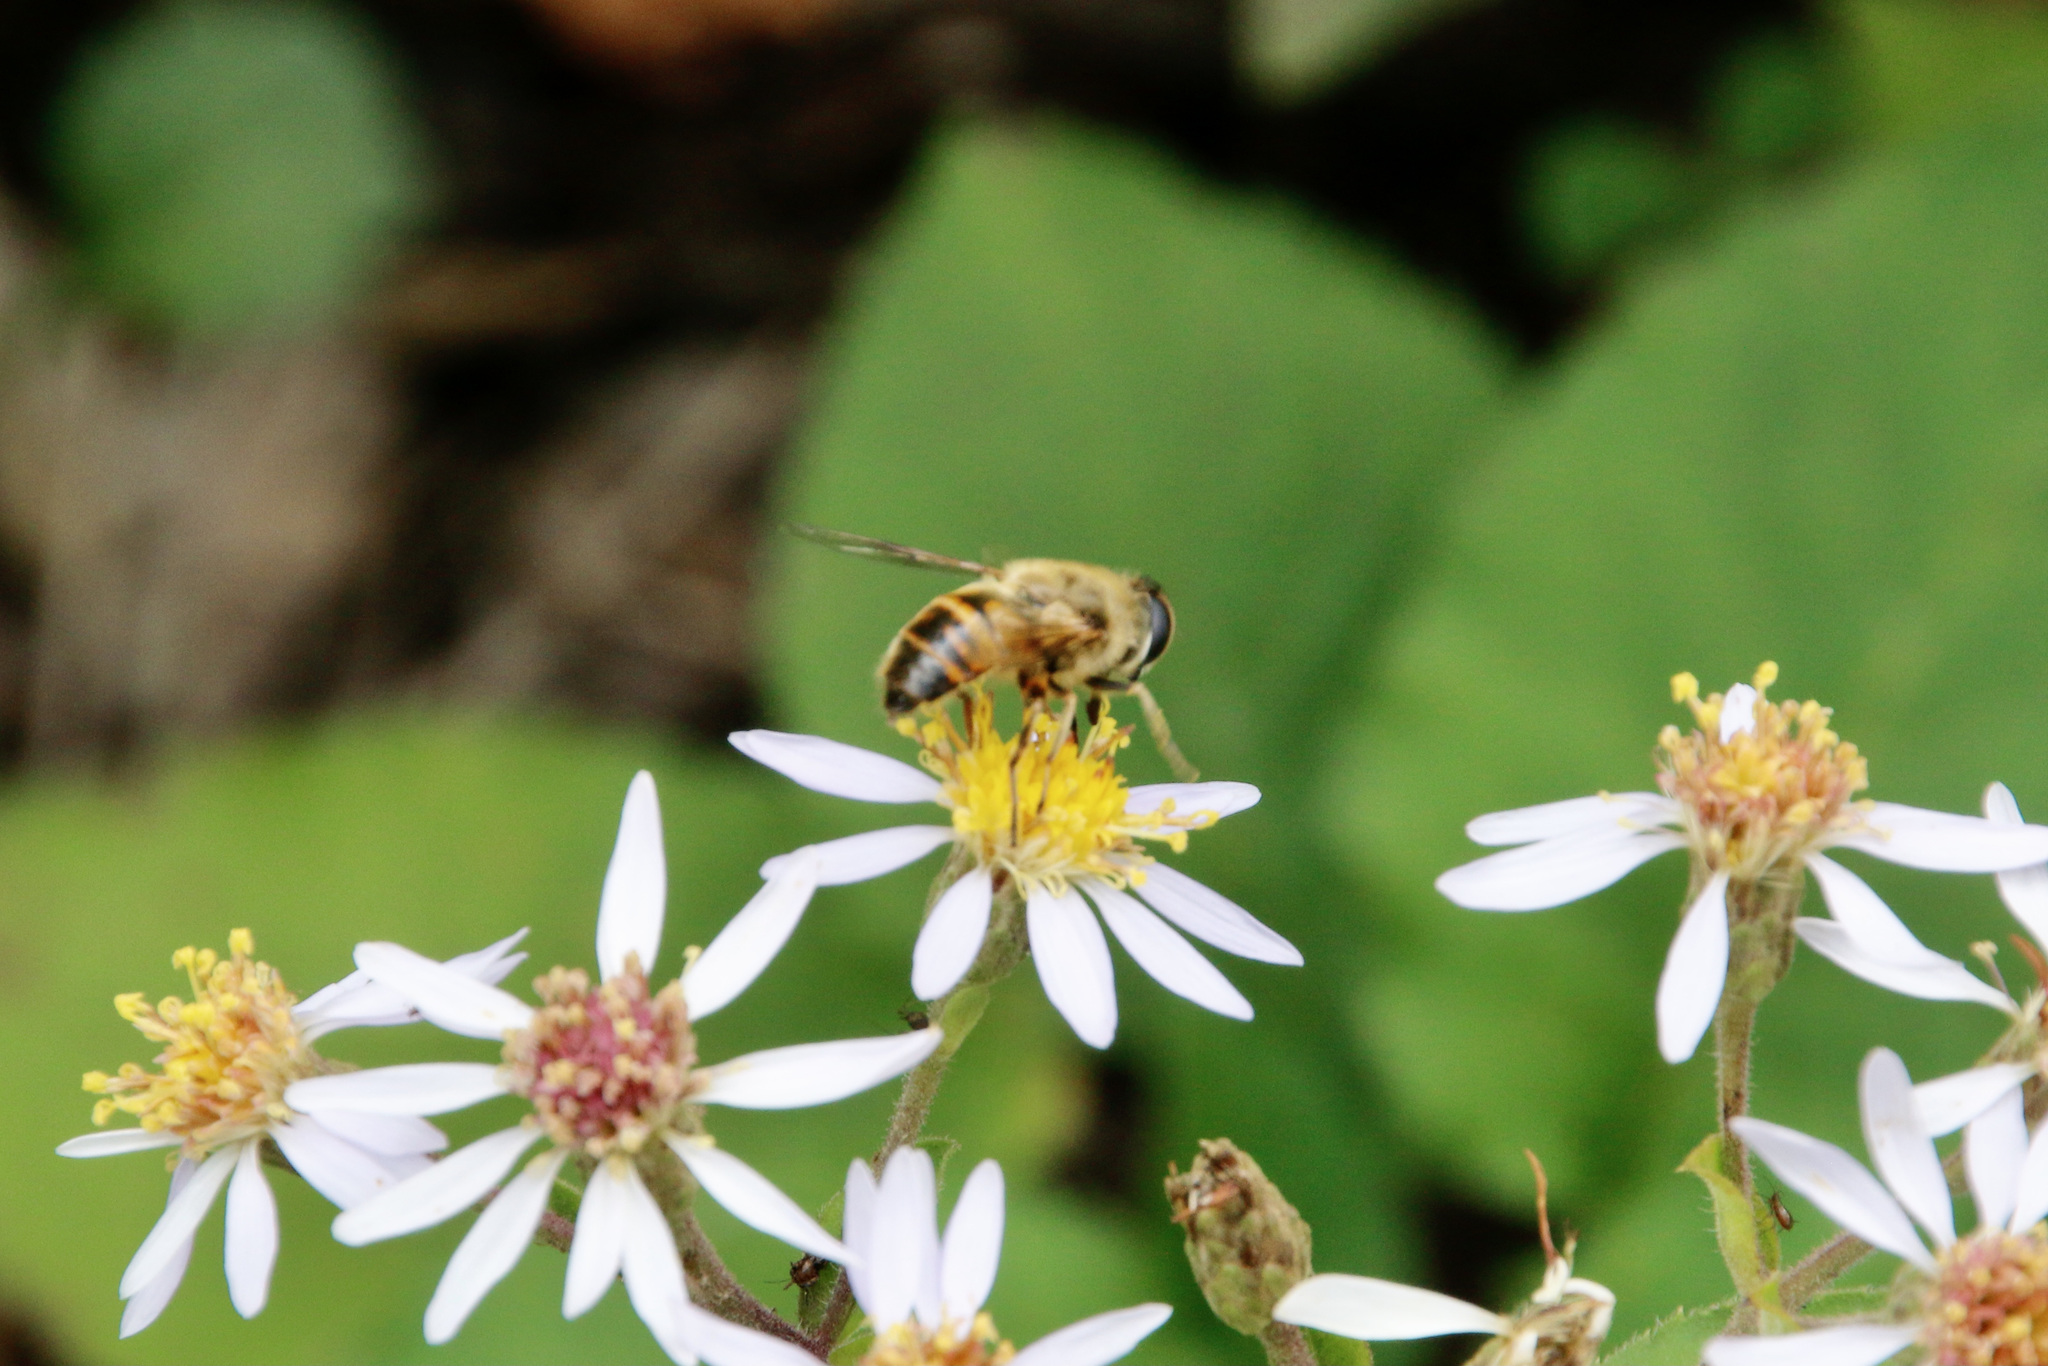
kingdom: Animalia
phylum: Arthropoda
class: Insecta
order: Diptera
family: Syrphidae
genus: Eristalis
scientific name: Eristalis tenax
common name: Drone fly
